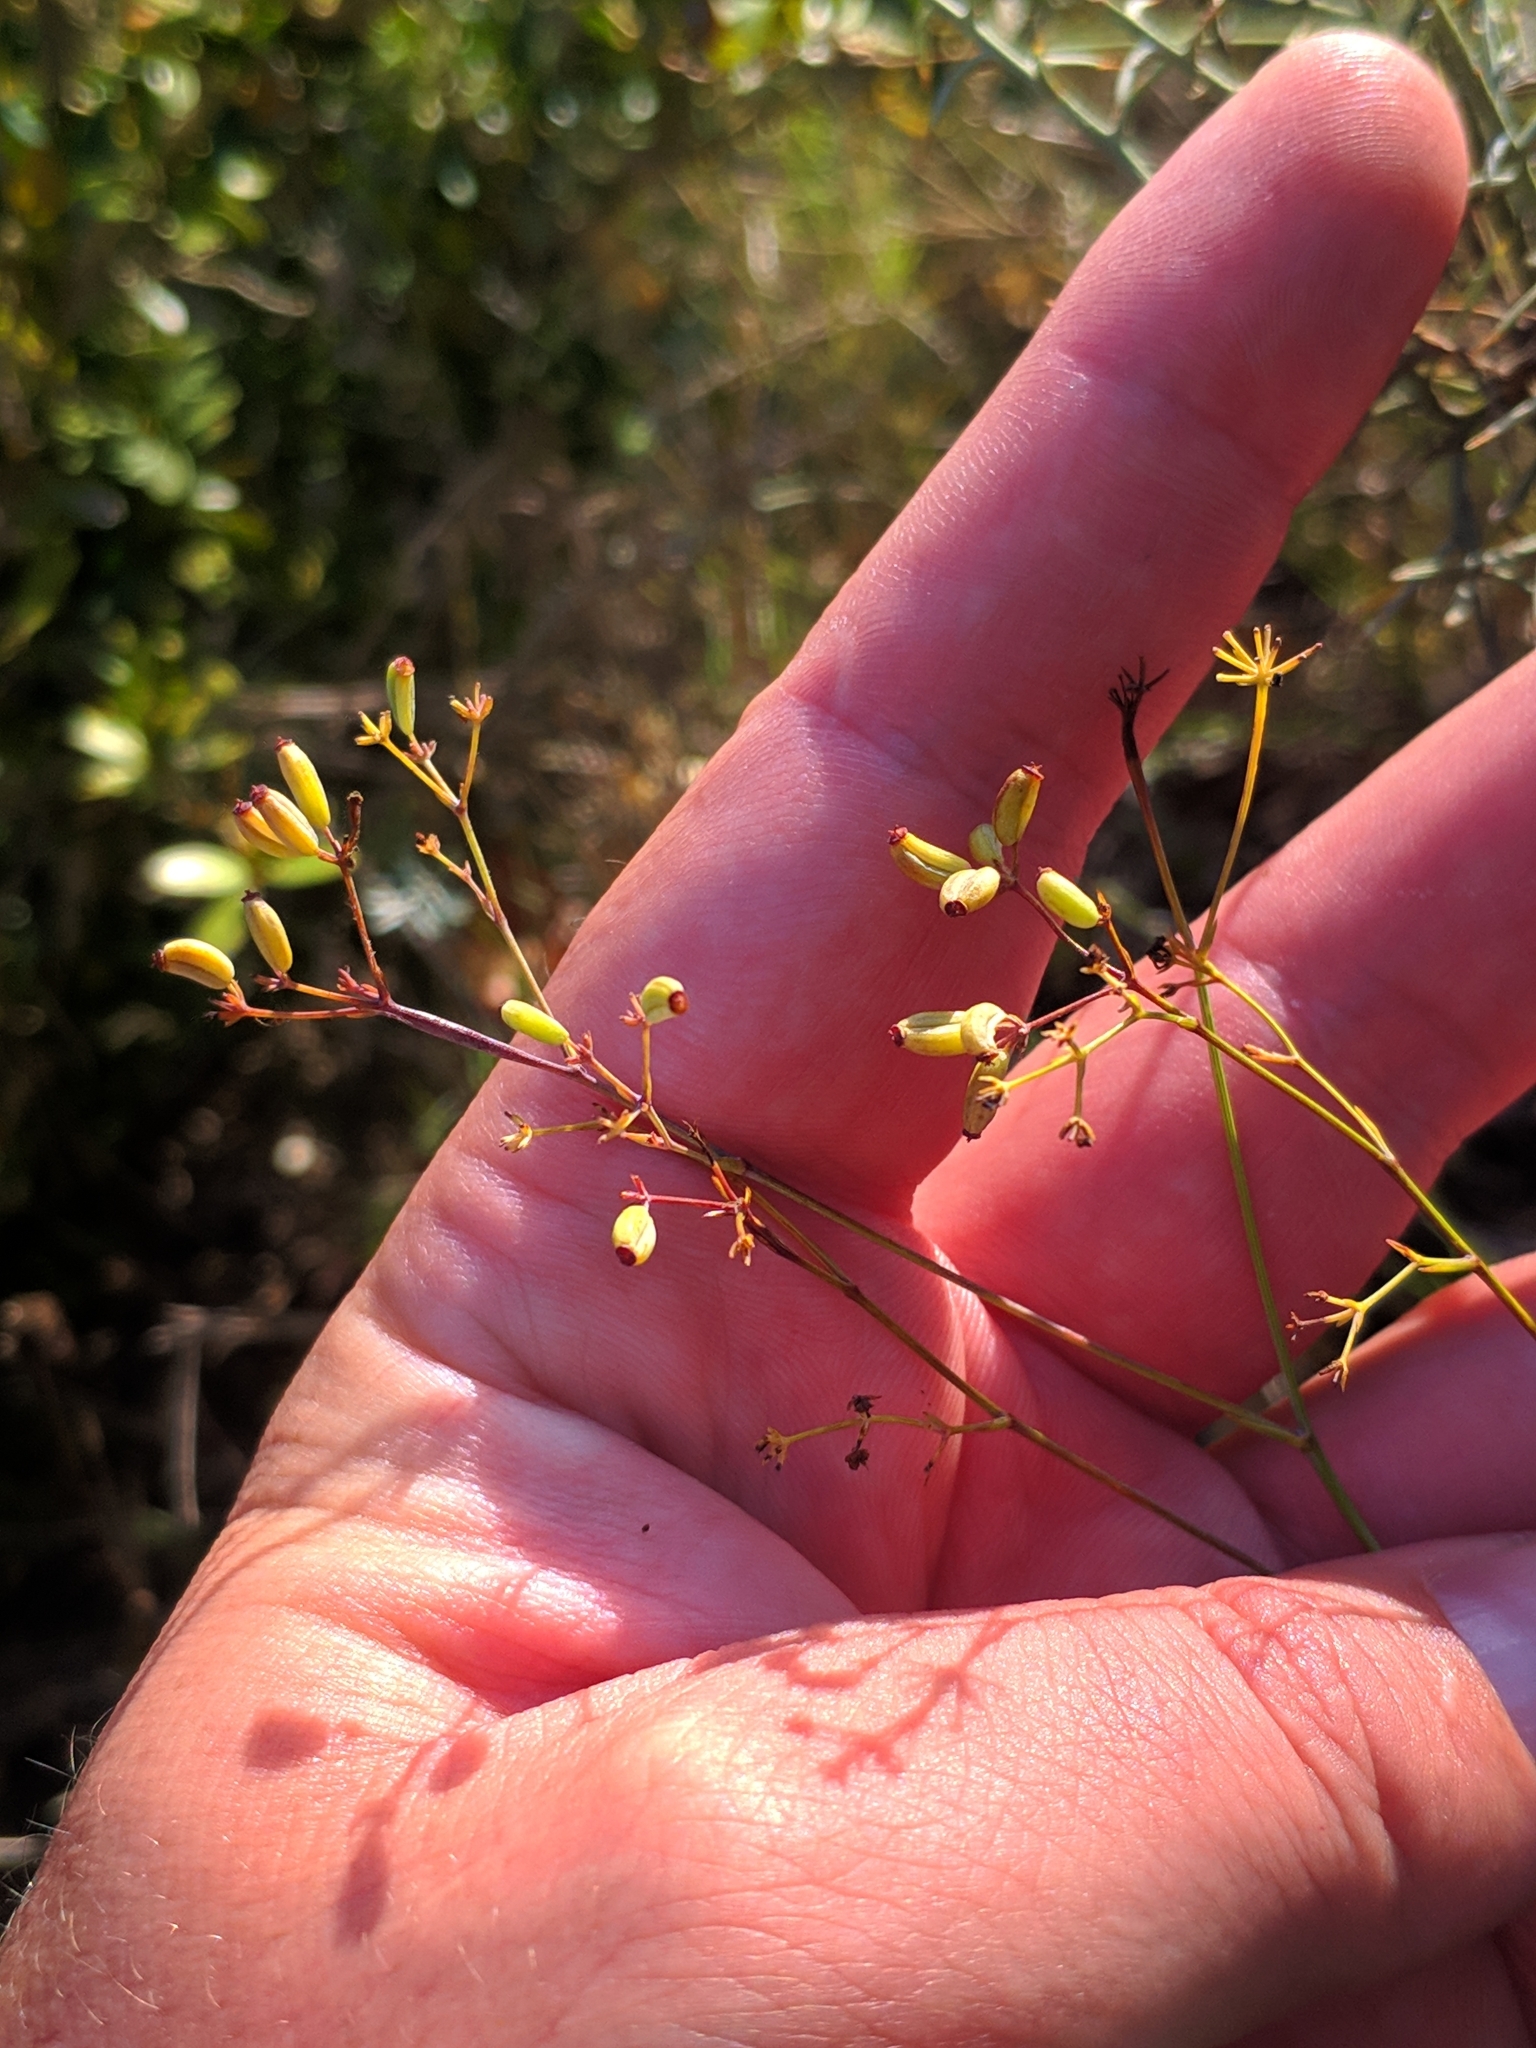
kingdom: Plantae
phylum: Tracheophyta
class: Magnoliopsida
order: Apiales
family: Apiaceae
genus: Bupleurum
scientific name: Bupleurum rigidum
